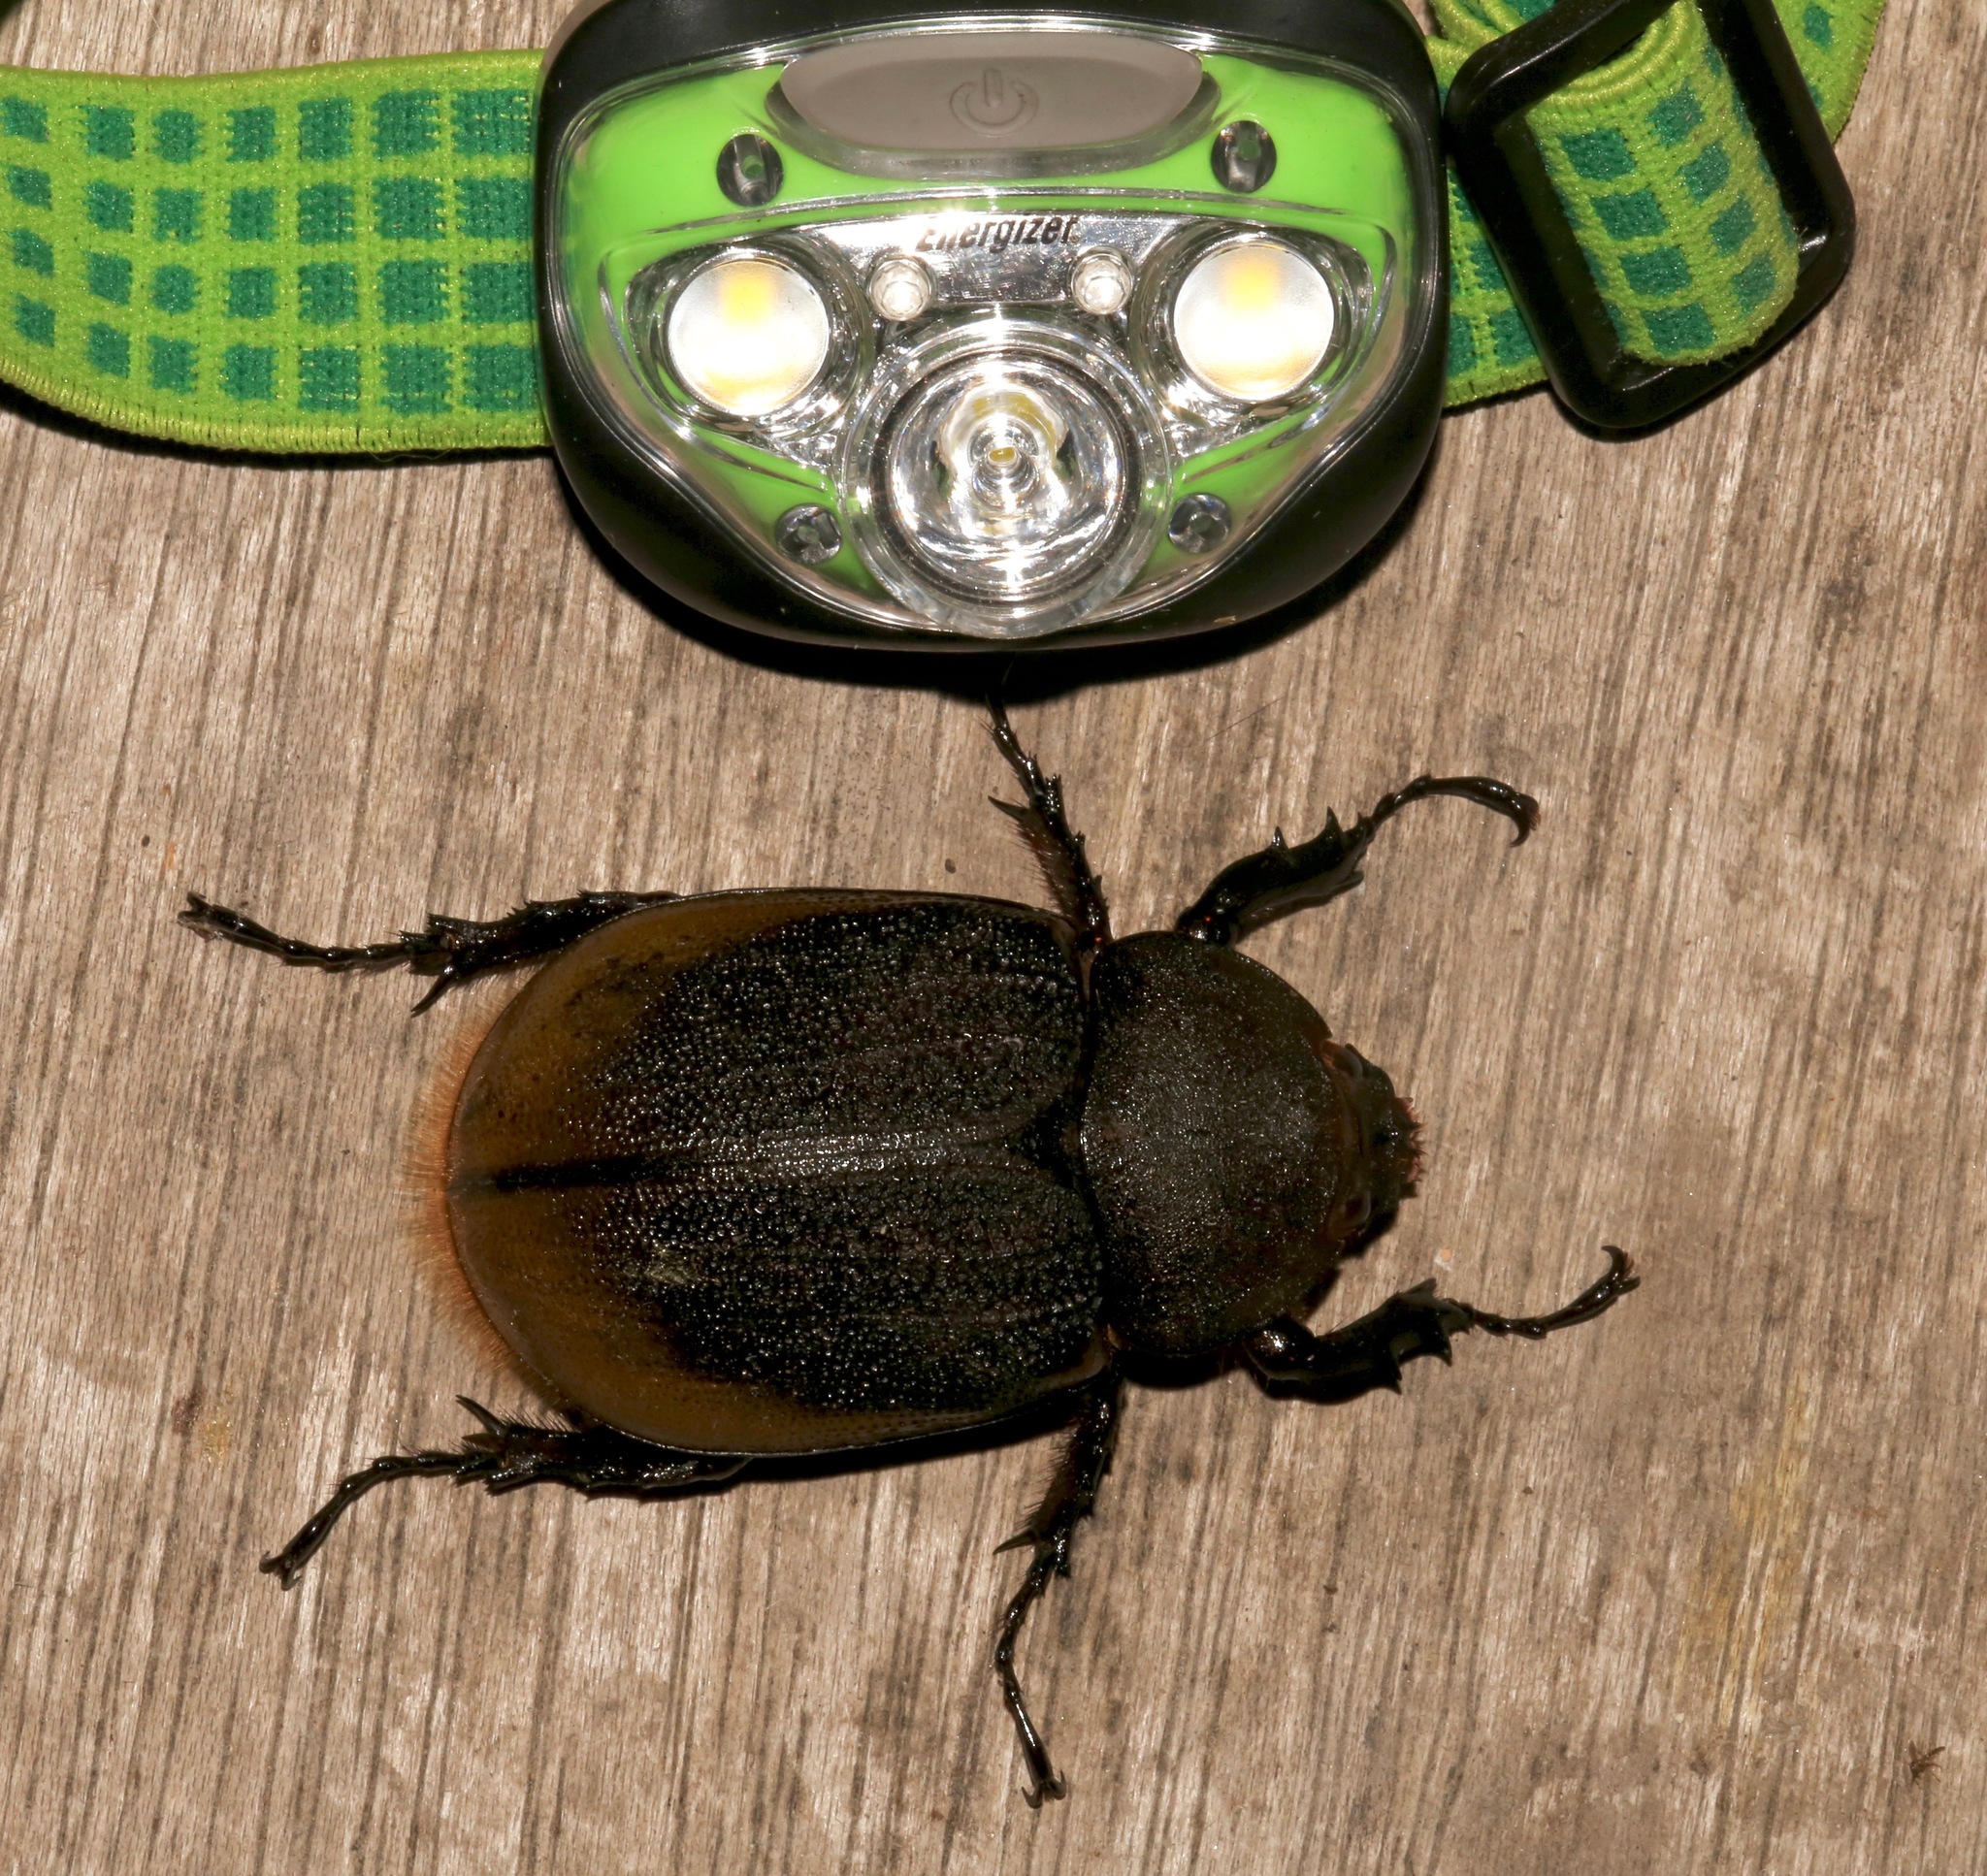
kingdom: Animalia
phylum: Arthropoda
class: Insecta
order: Coleoptera
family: Scarabaeidae
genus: Dynastes
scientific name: Dynastes
